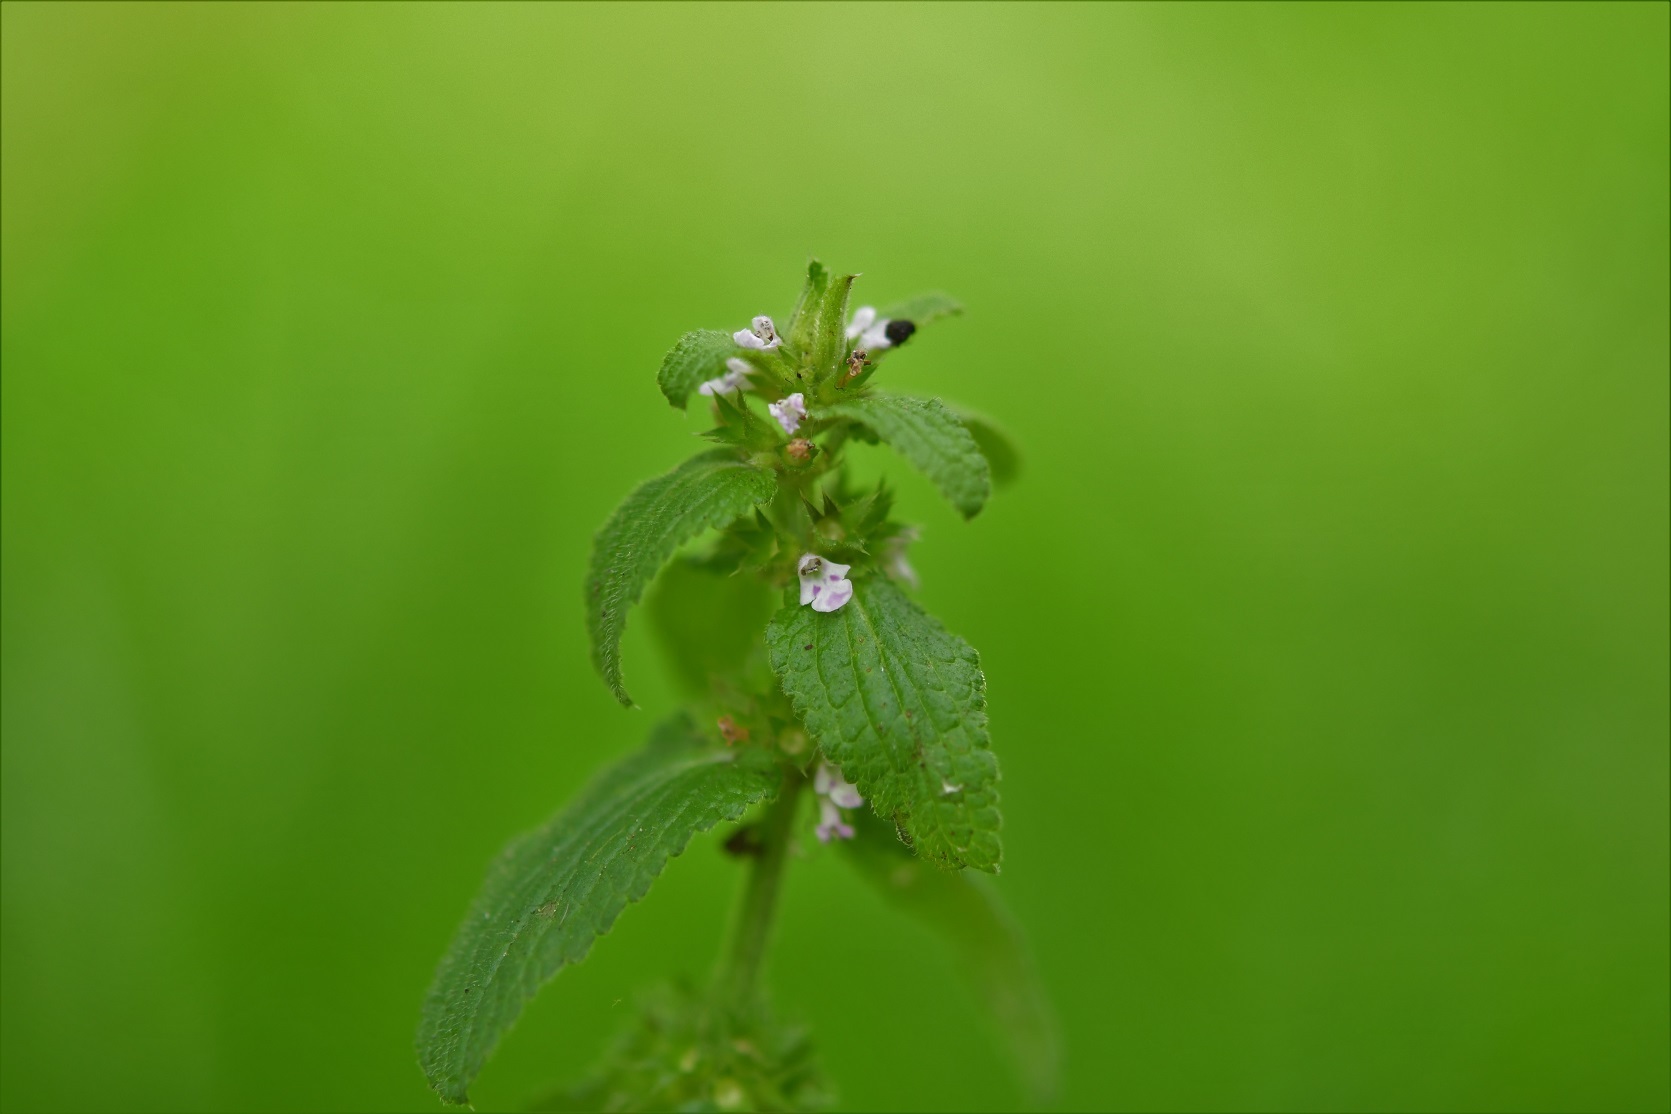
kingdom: Plantae
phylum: Tracheophyta
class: Magnoliopsida
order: Lamiales
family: Lamiaceae
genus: Stachys
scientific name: Stachys agraria
